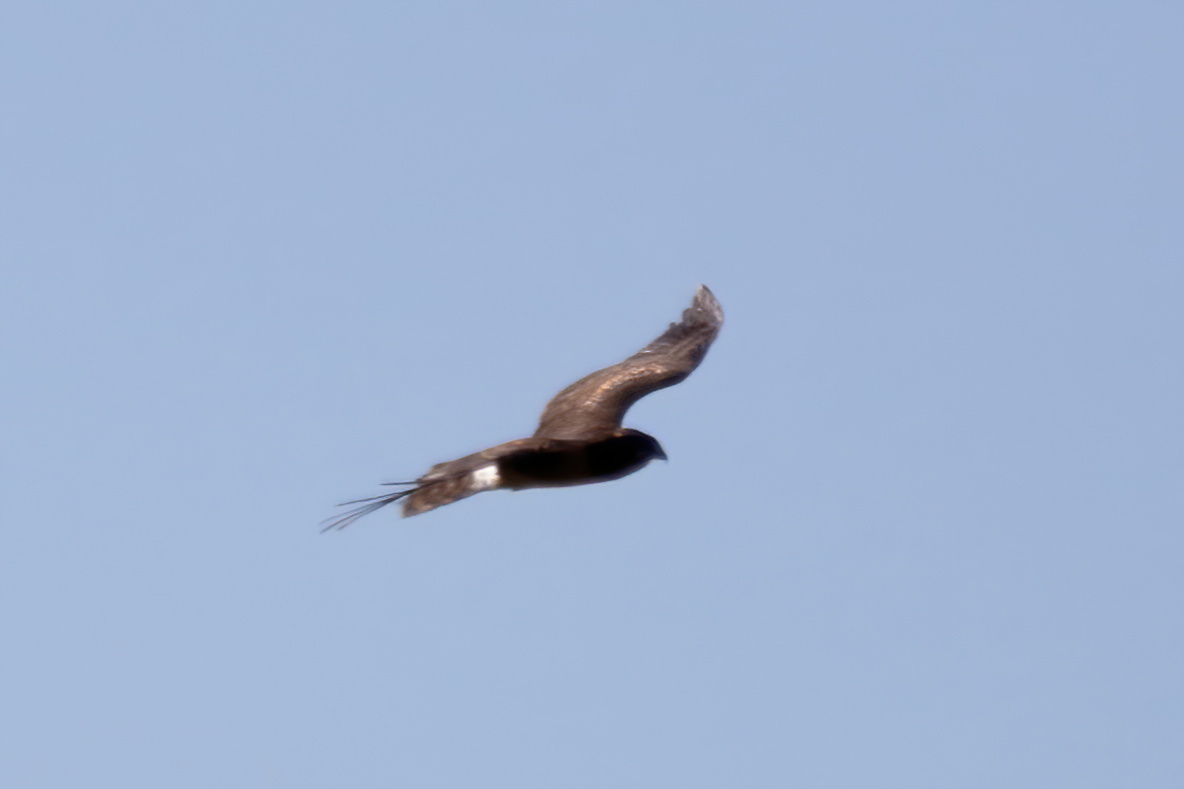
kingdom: Animalia
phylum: Chordata
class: Aves
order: Accipitriformes
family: Accipitridae
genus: Circus
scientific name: Circus cyaneus
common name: Hen harrier
